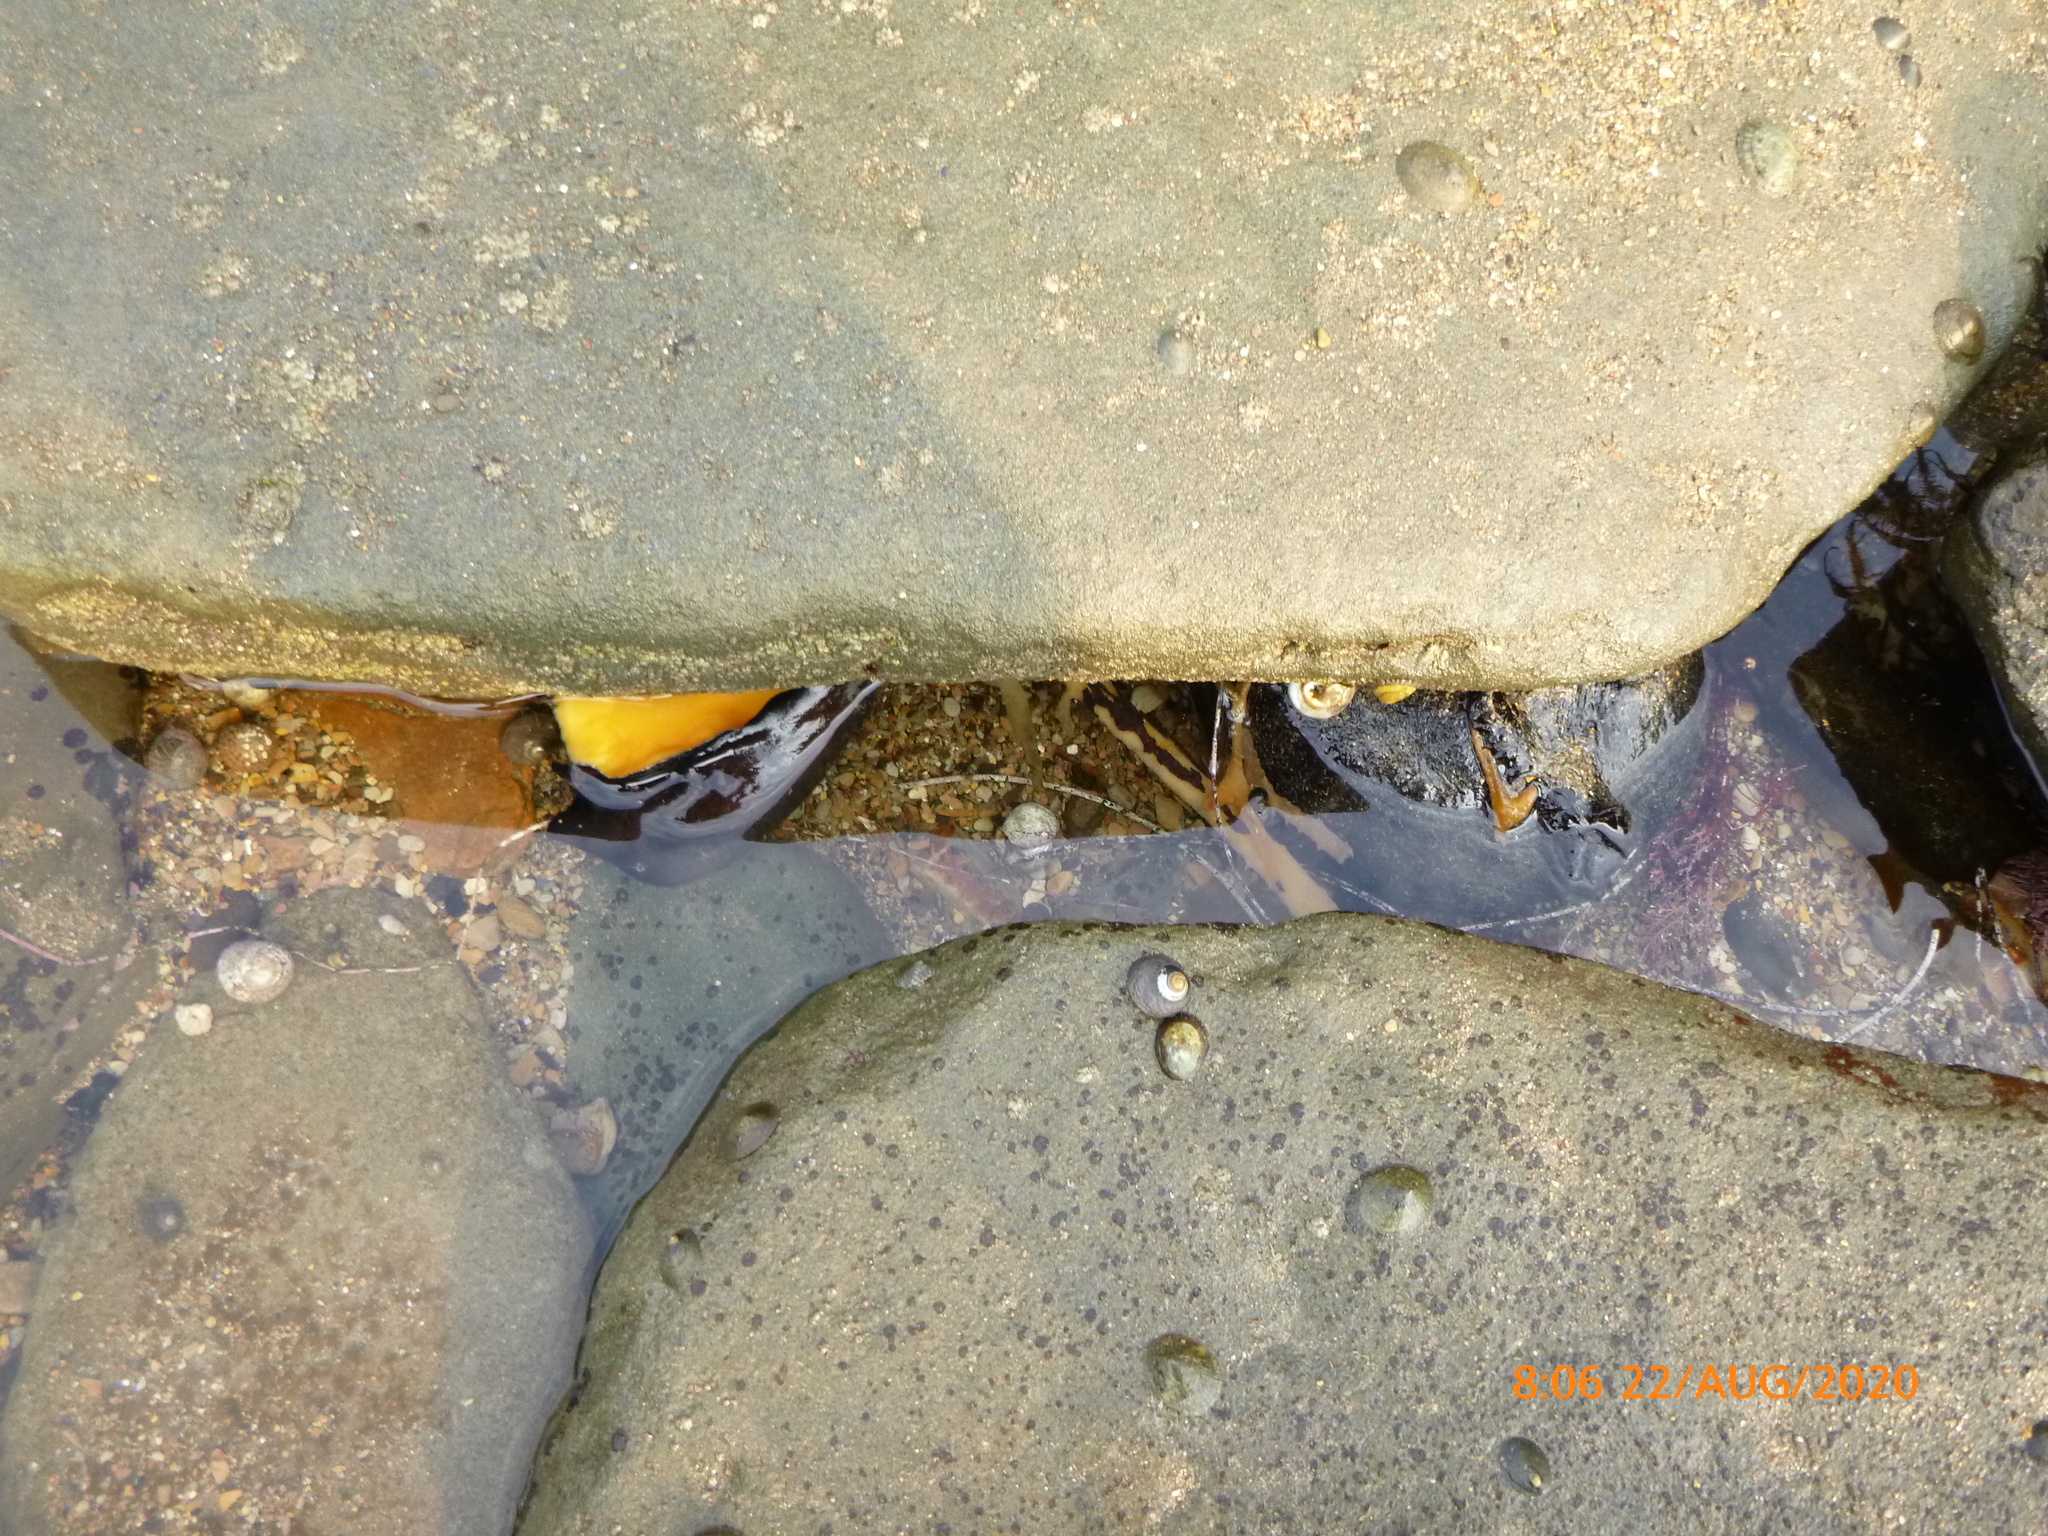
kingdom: Animalia
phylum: Mollusca
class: Gastropoda
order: Lepetellida
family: Fissurellidae
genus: Megathura
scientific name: Megathura crenulata
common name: Giant keyhole limpet
